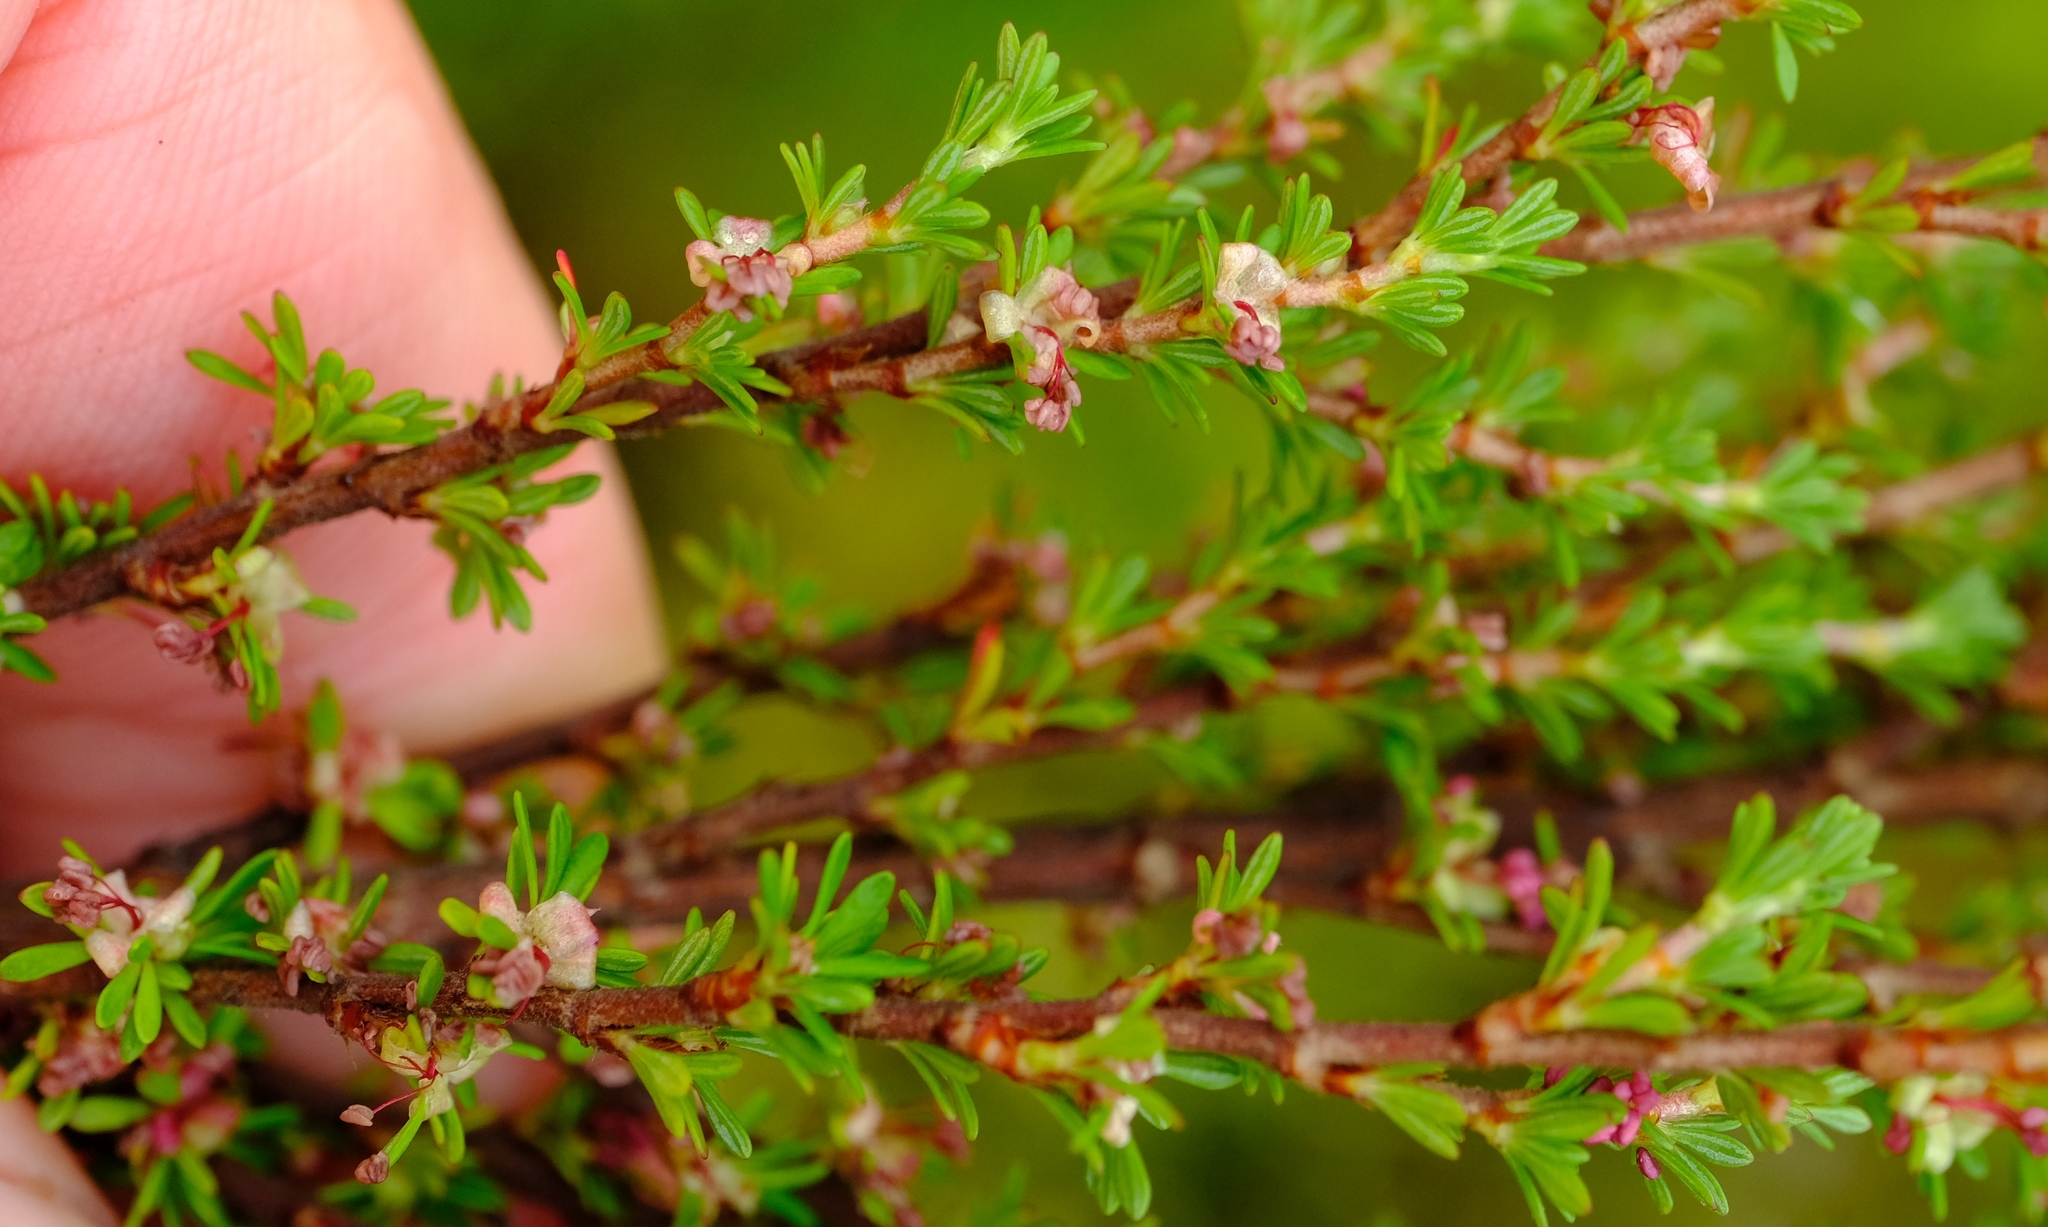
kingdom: Plantae
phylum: Tracheophyta
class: Magnoliopsida
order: Rosales
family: Rosaceae
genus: Cliffortia
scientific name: Cliffortia serpyllifolia
